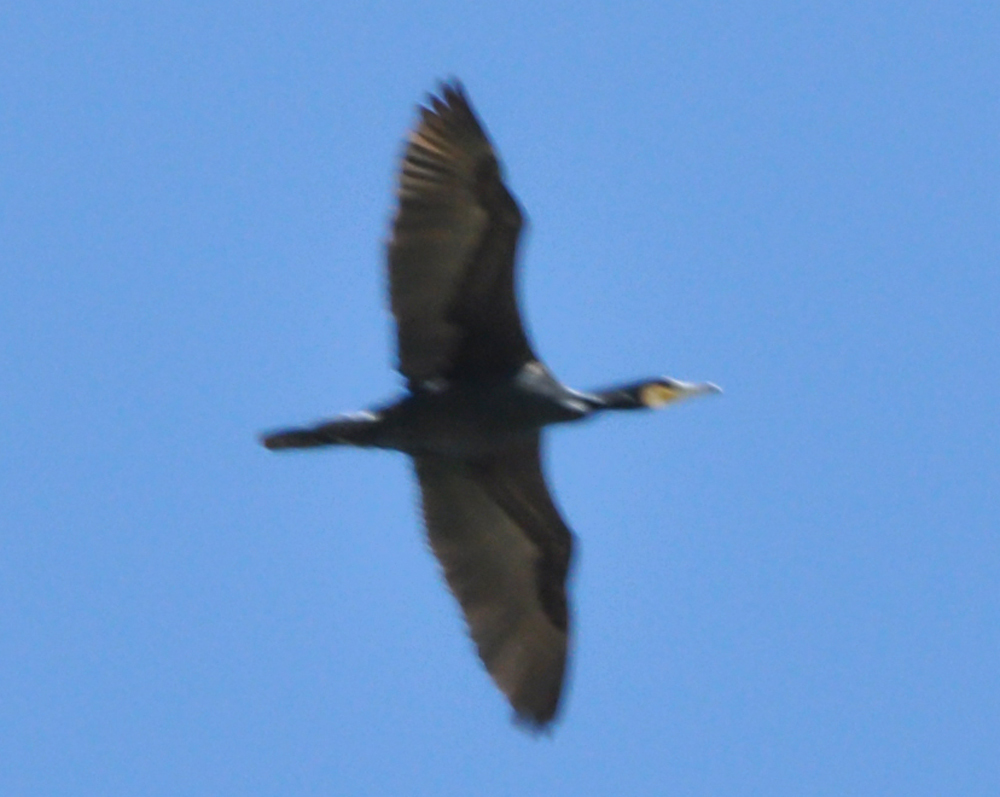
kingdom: Animalia
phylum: Chordata
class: Aves
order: Suliformes
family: Phalacrocoracidae
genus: Phalacrocorax
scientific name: Phalacrocorax carbo
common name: Great cormorant
